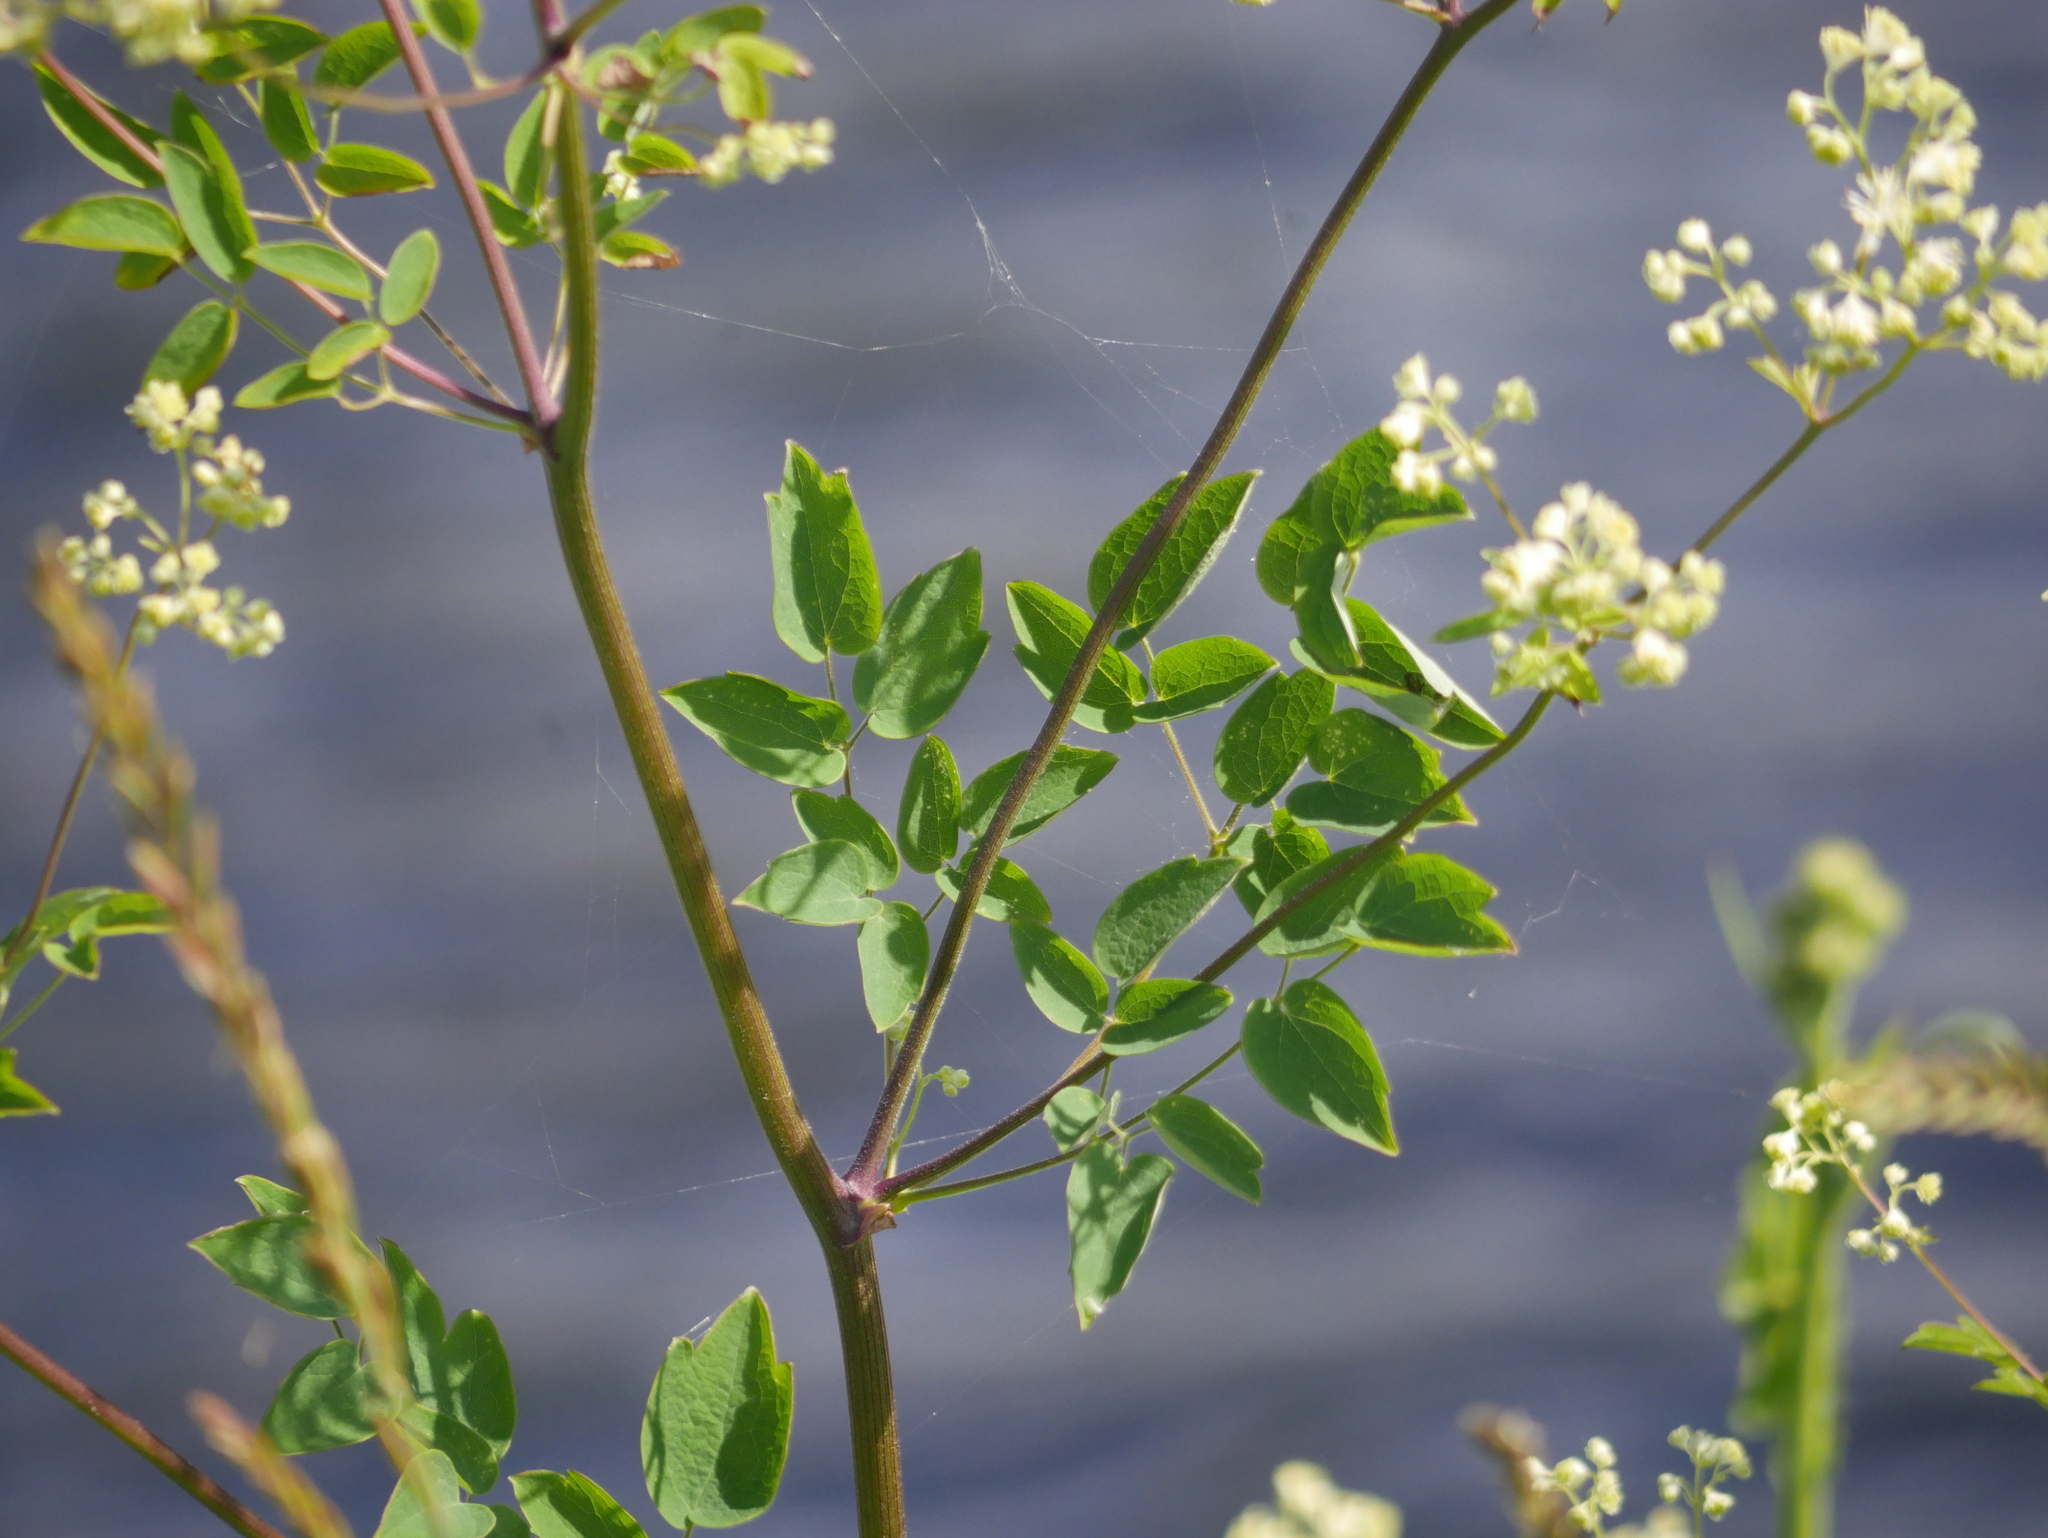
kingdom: Plantae
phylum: Tracheophyta
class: Magnoliopsida
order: Ranunculales
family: Ranunculaceae
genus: Thalictrum
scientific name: Thalictrum pubescens
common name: King-of-the-meadow
